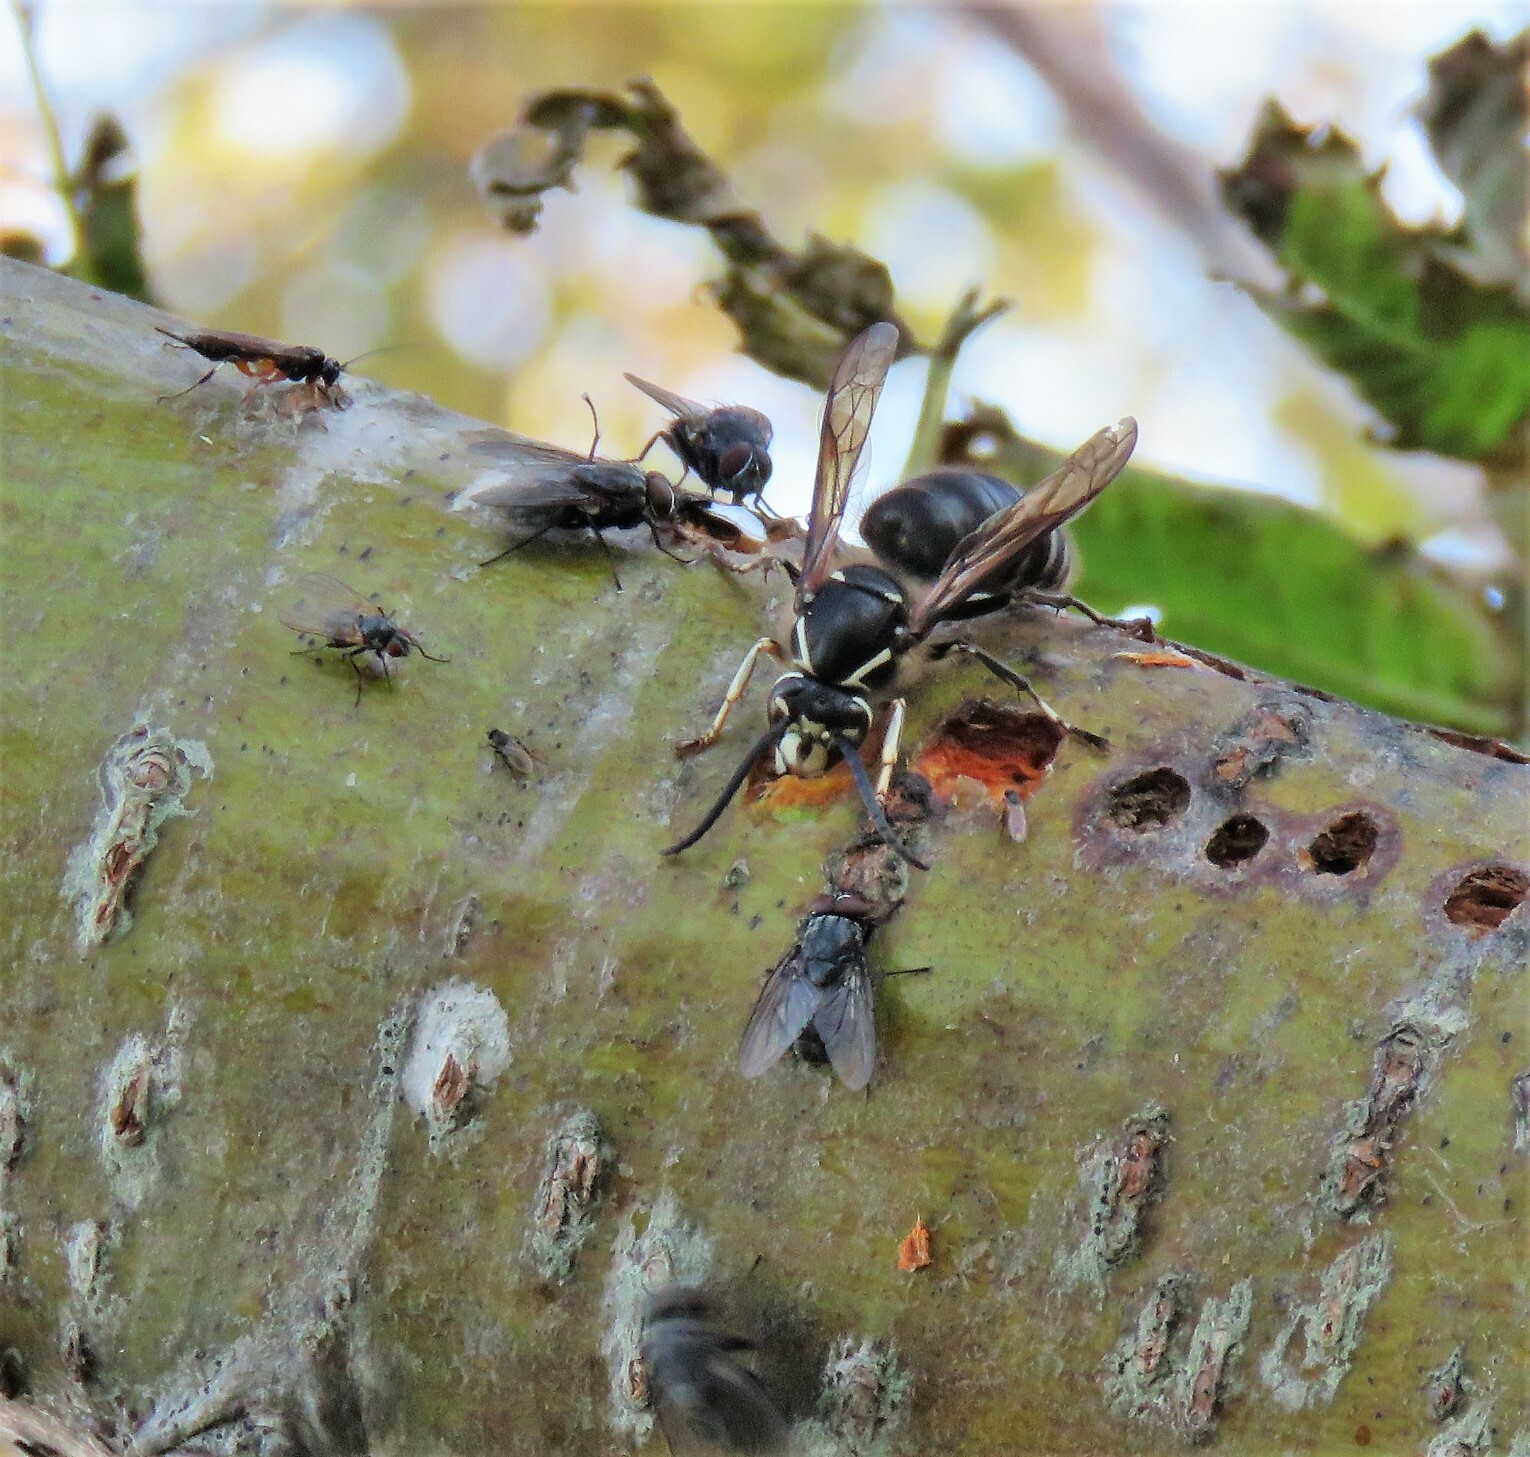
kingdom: Animalia
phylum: Arthropoda
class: Insecta
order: Hymenoptera
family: Vespidae
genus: Dolichovespula
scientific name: Dolichovespula maculata
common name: Bald-faced hornet
